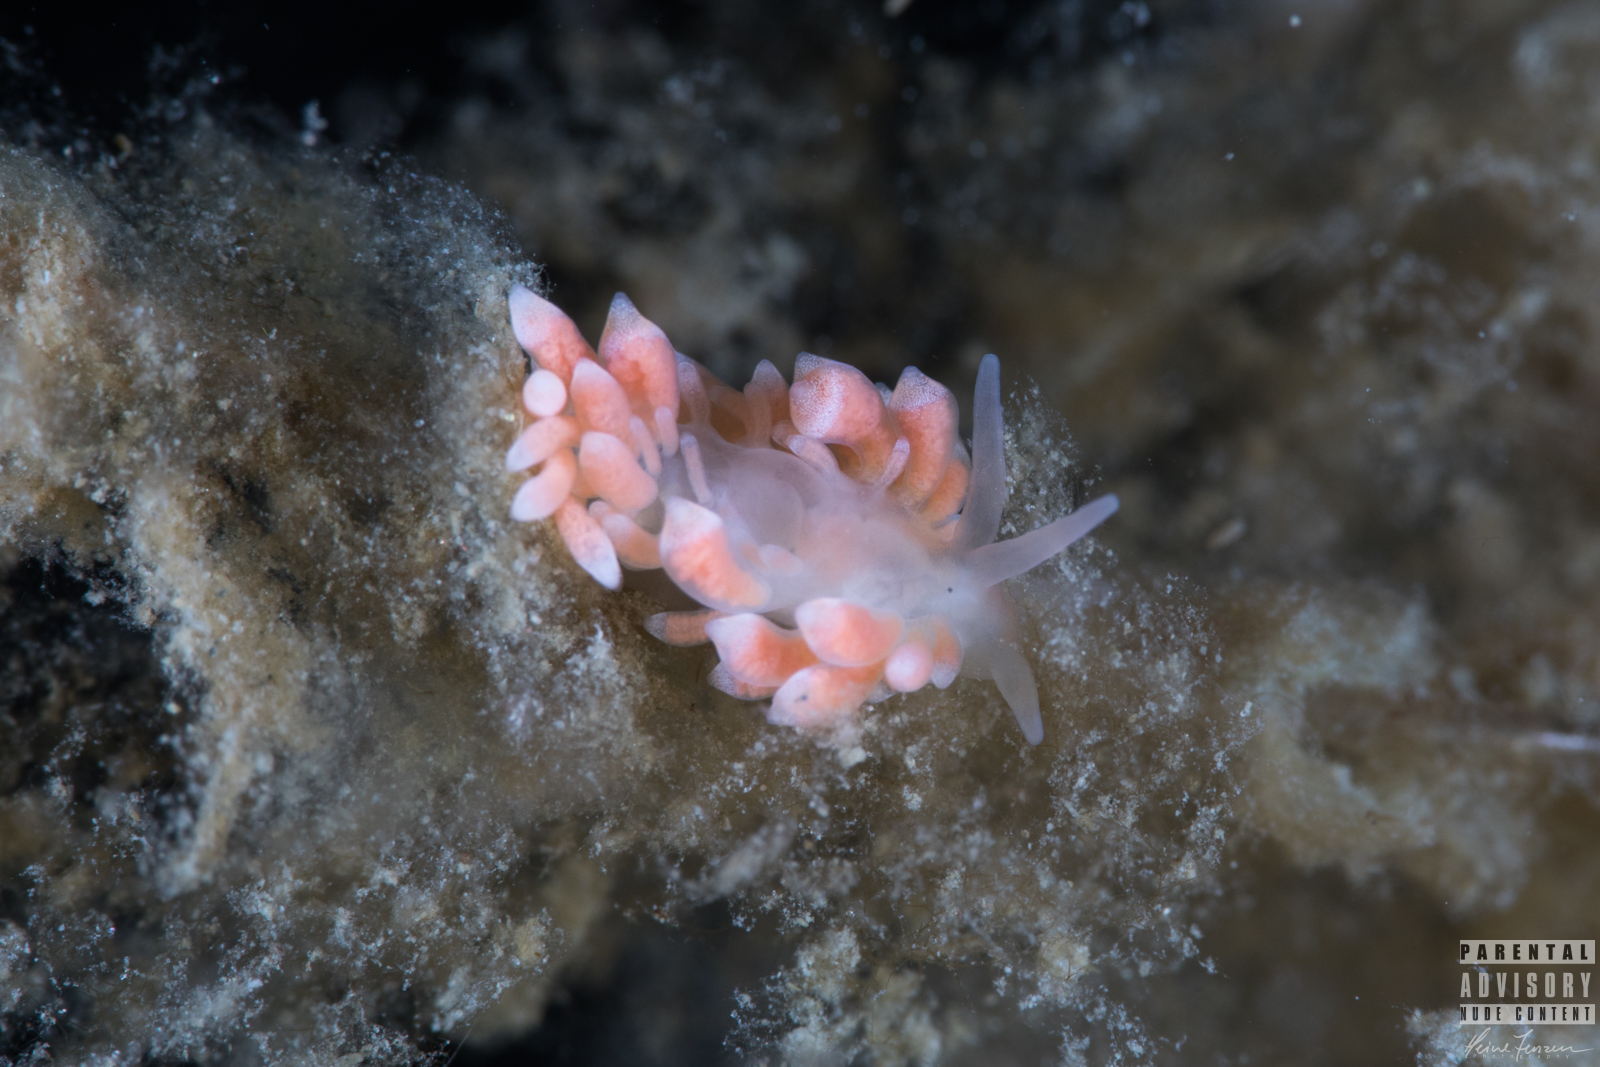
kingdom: Animalia
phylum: Mollusca
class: Gastropoda
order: Nudibranchia
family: Trinchesiidae
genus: Catriona
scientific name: Catriona aurantia
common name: Corange-tip cuthona
